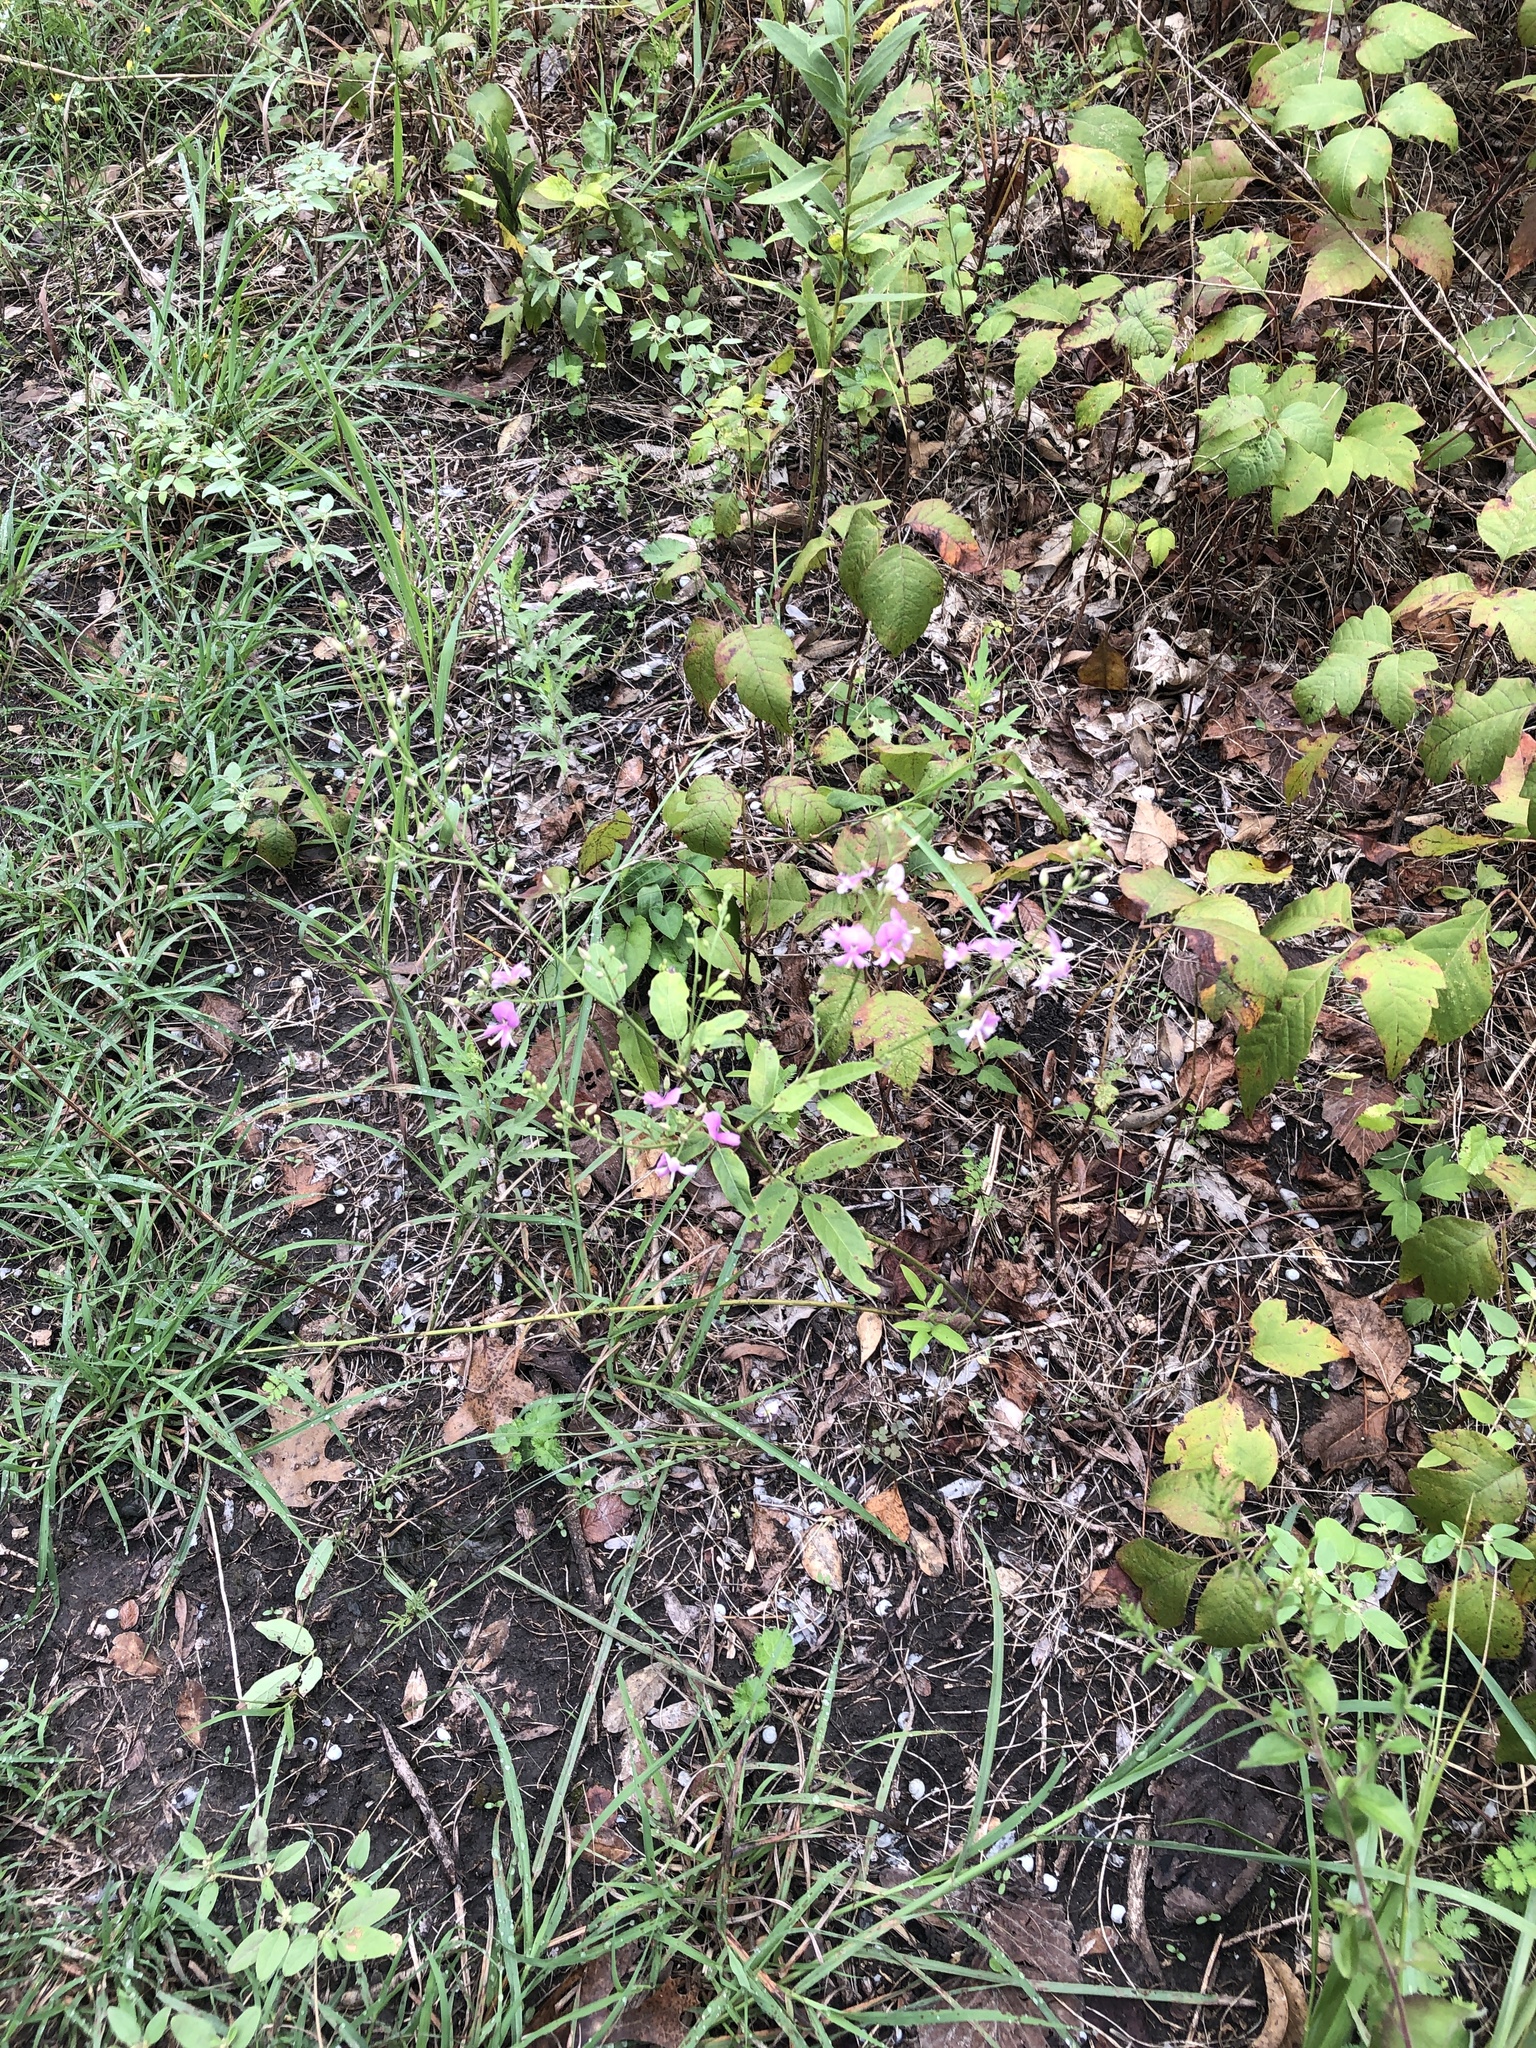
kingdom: Plantae
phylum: Tracheophyta
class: Magnoliopsida
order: Fabales
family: Fabaceae
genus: Desmodium
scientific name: Desmodium paniculatum
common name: Panicled tick-clover
